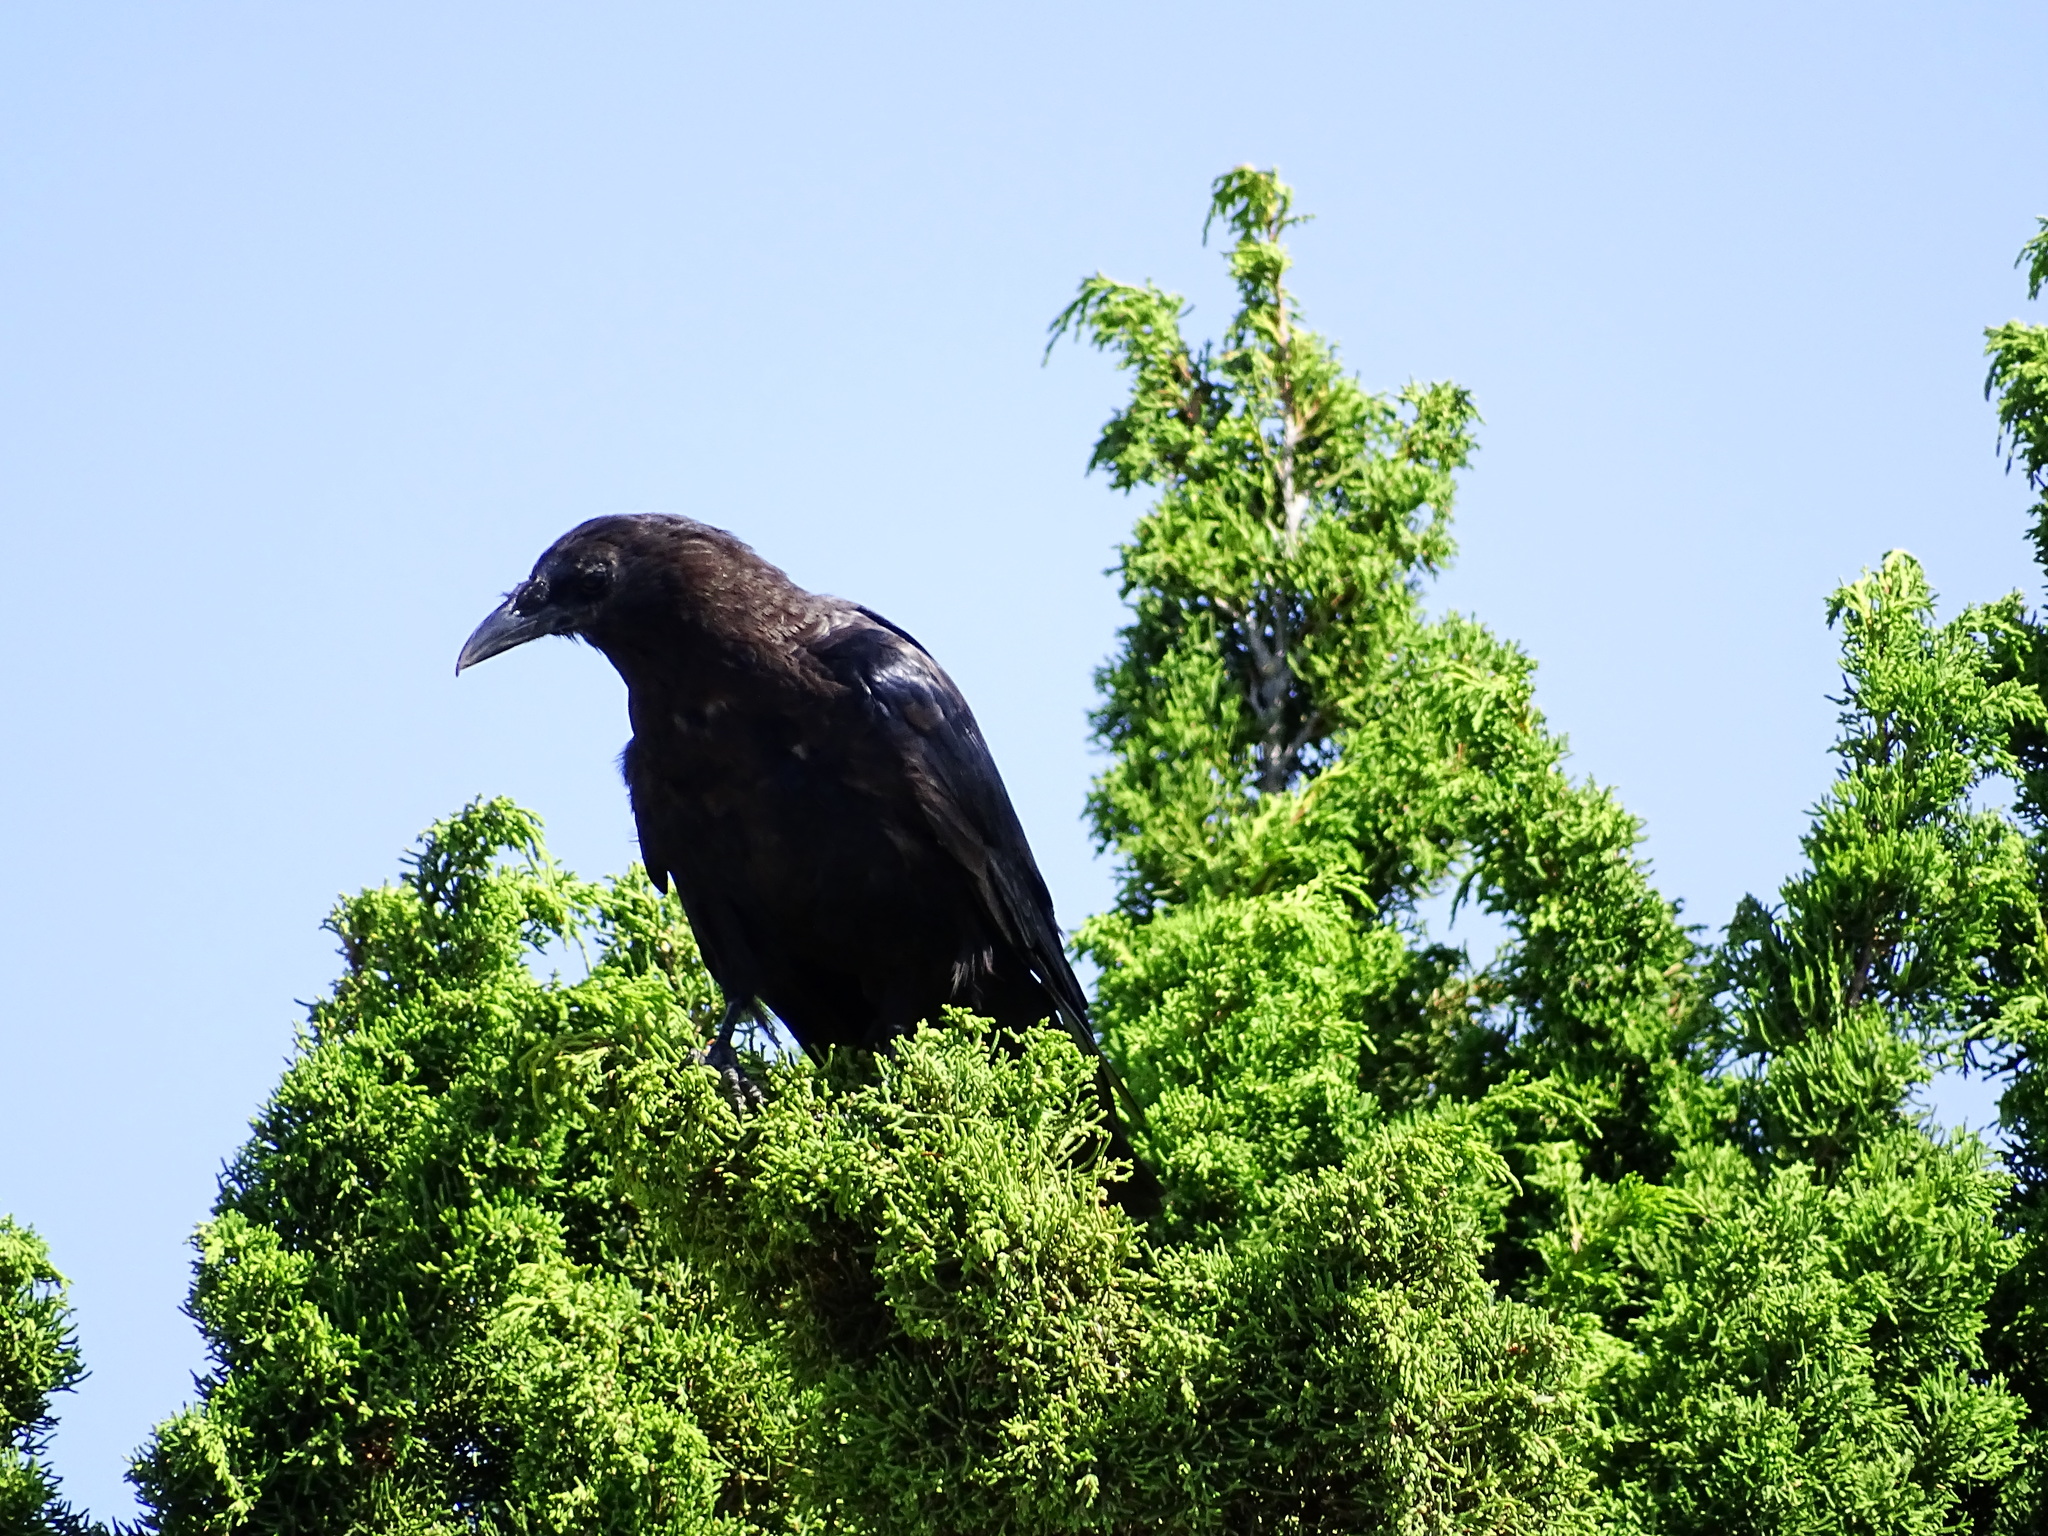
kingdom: Animalia
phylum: Chordata
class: Aves
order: Passeriformes
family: Corvidae
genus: Corvus
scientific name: Corvus brachyrhynchos
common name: American crow
